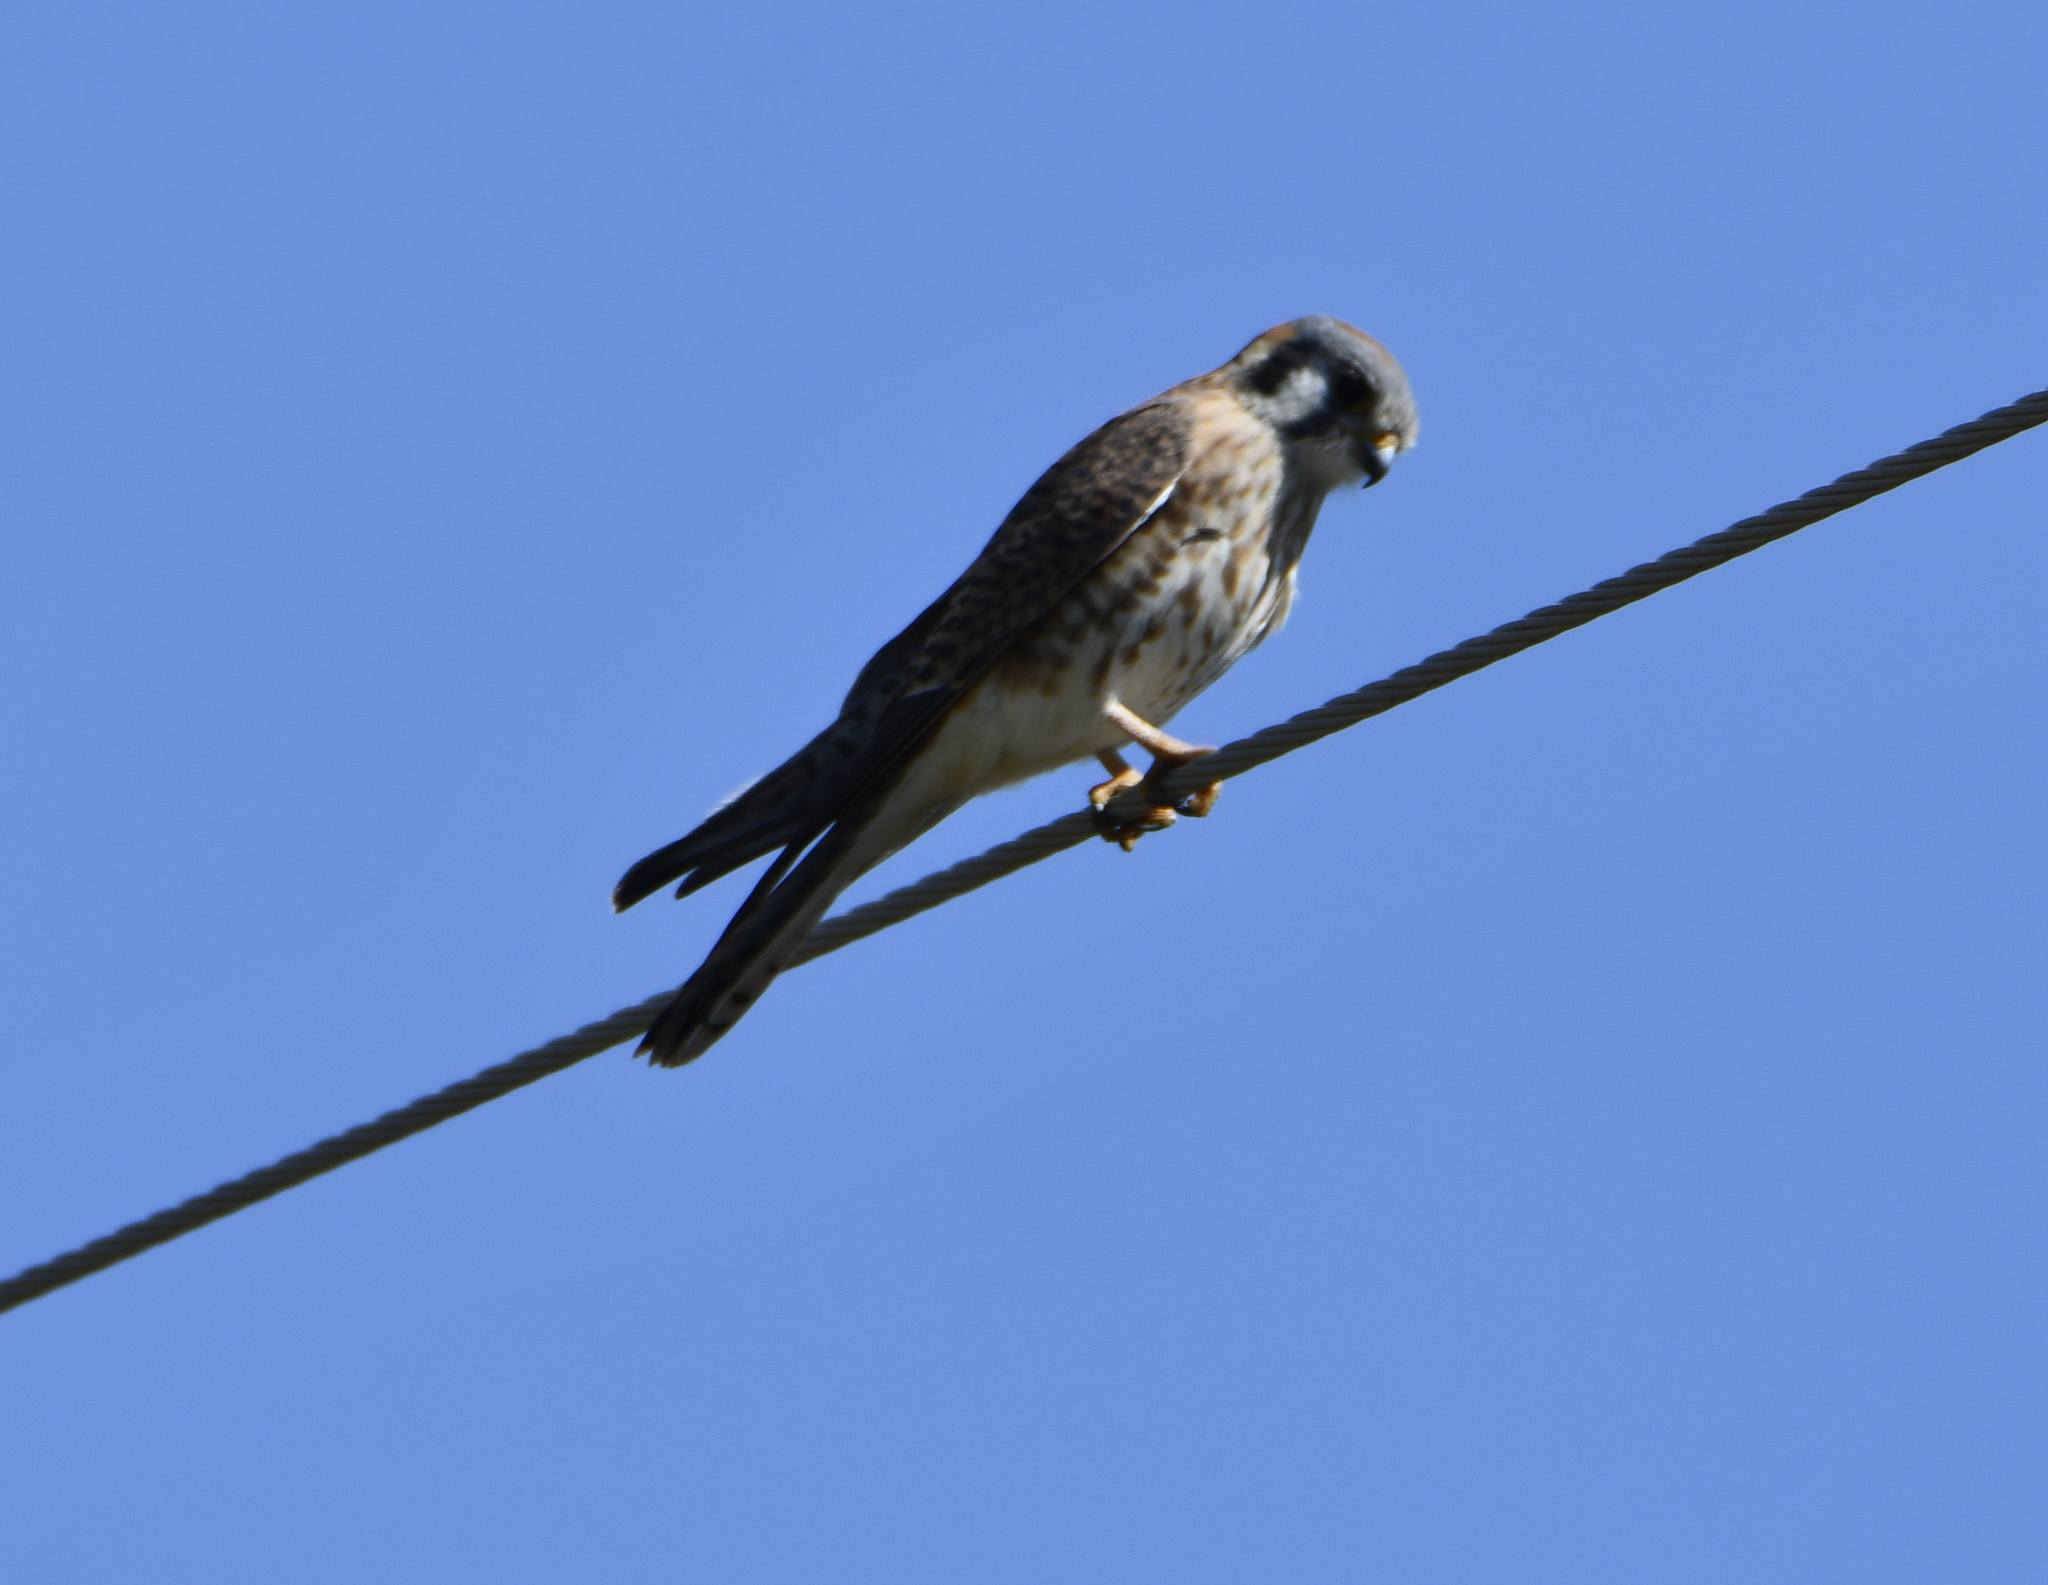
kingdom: Animalia
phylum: Chordata
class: Aves
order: Falconiformes
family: Falconidae
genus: Falco
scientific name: Falco sparverius
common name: American kestrel
